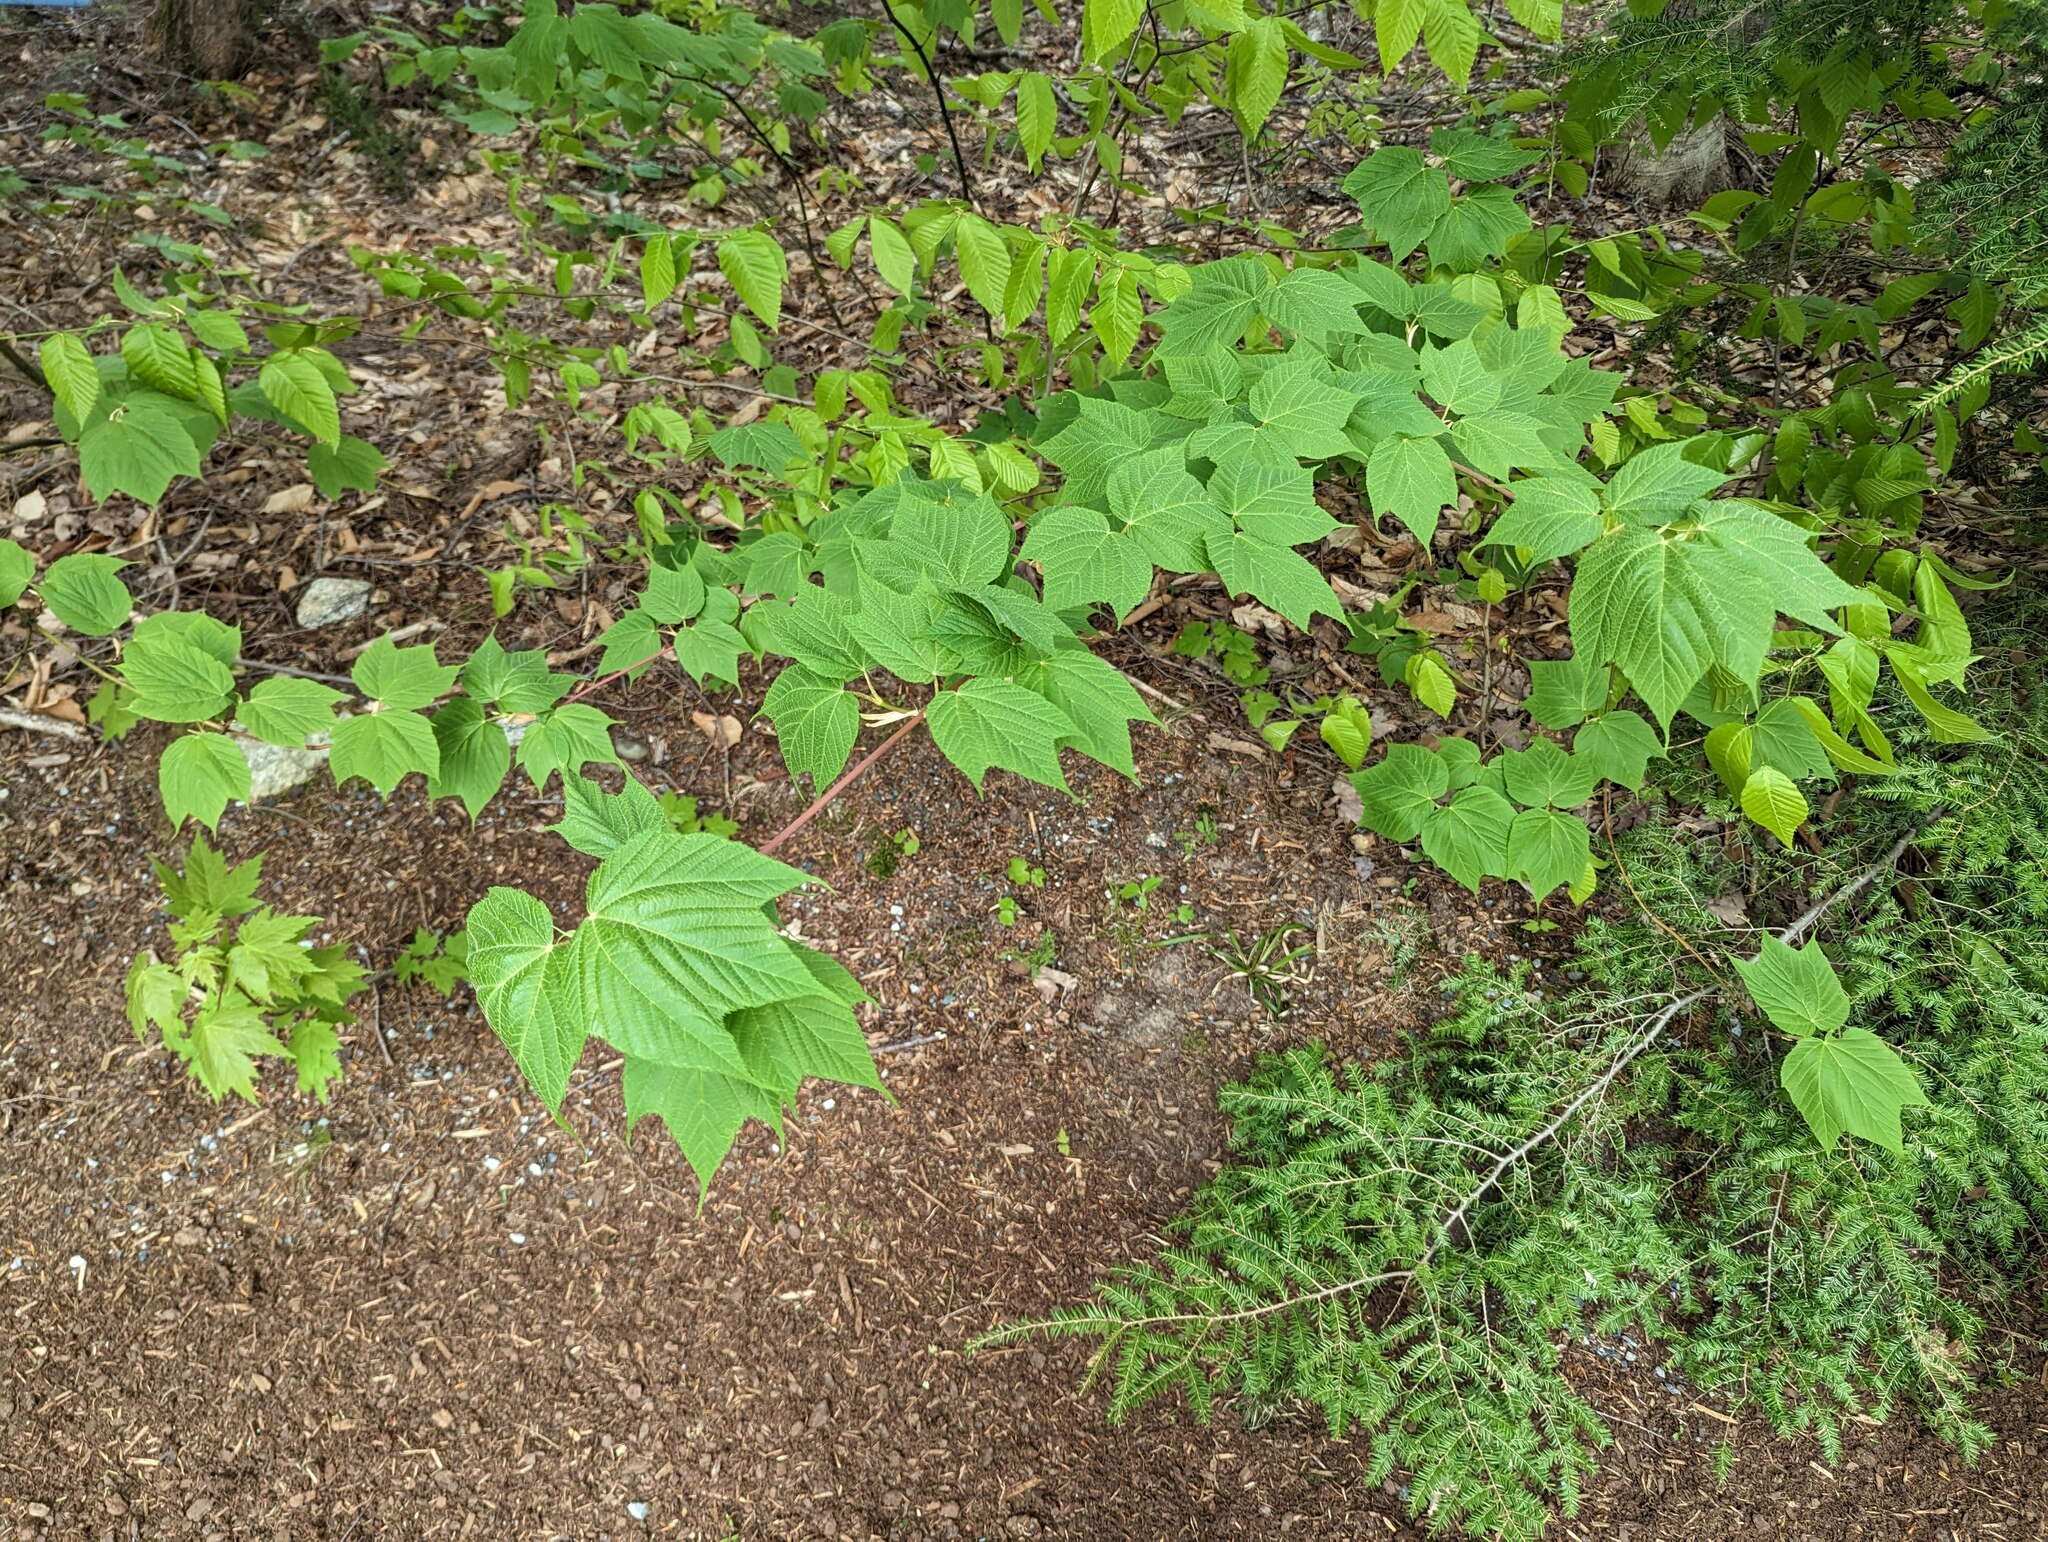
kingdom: Plantae
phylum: Tracheophyta
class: Magnoliopsida
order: Sapindales
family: Sapindaceae
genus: Acer
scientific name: Acer pensylvanicum
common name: Moosewood
